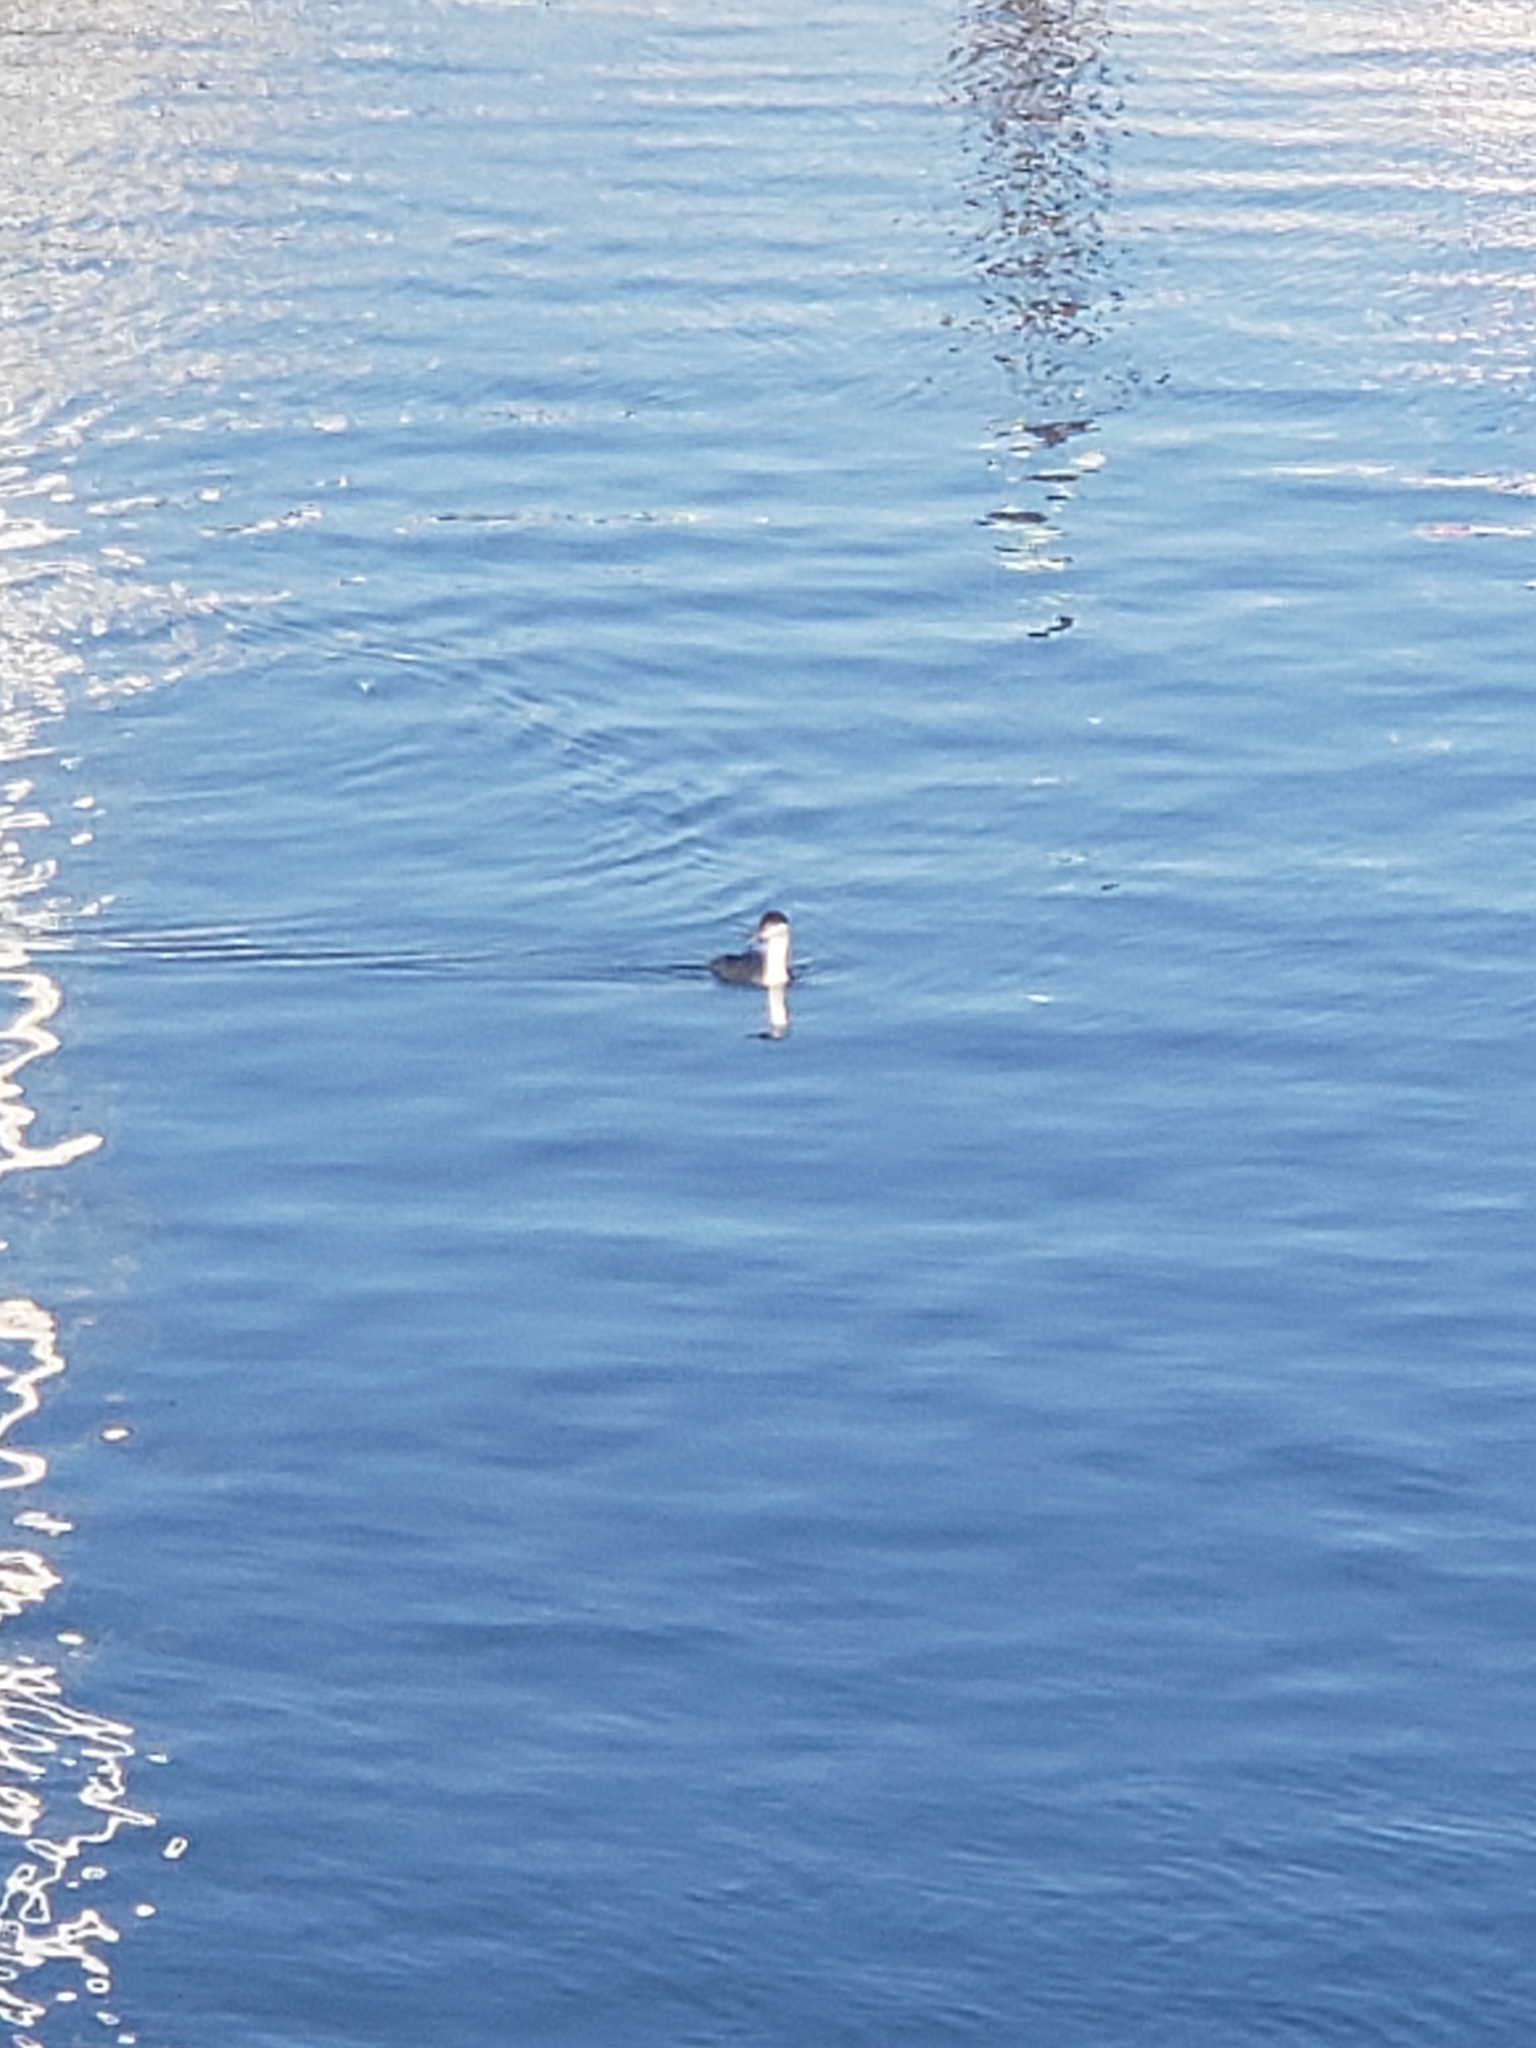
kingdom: Animalia
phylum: Chordata
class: Aves
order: Podicipediformes
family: Podicipedidae
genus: Aechmophorus
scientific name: Aechmophorus clarkii
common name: Clark's grebe
